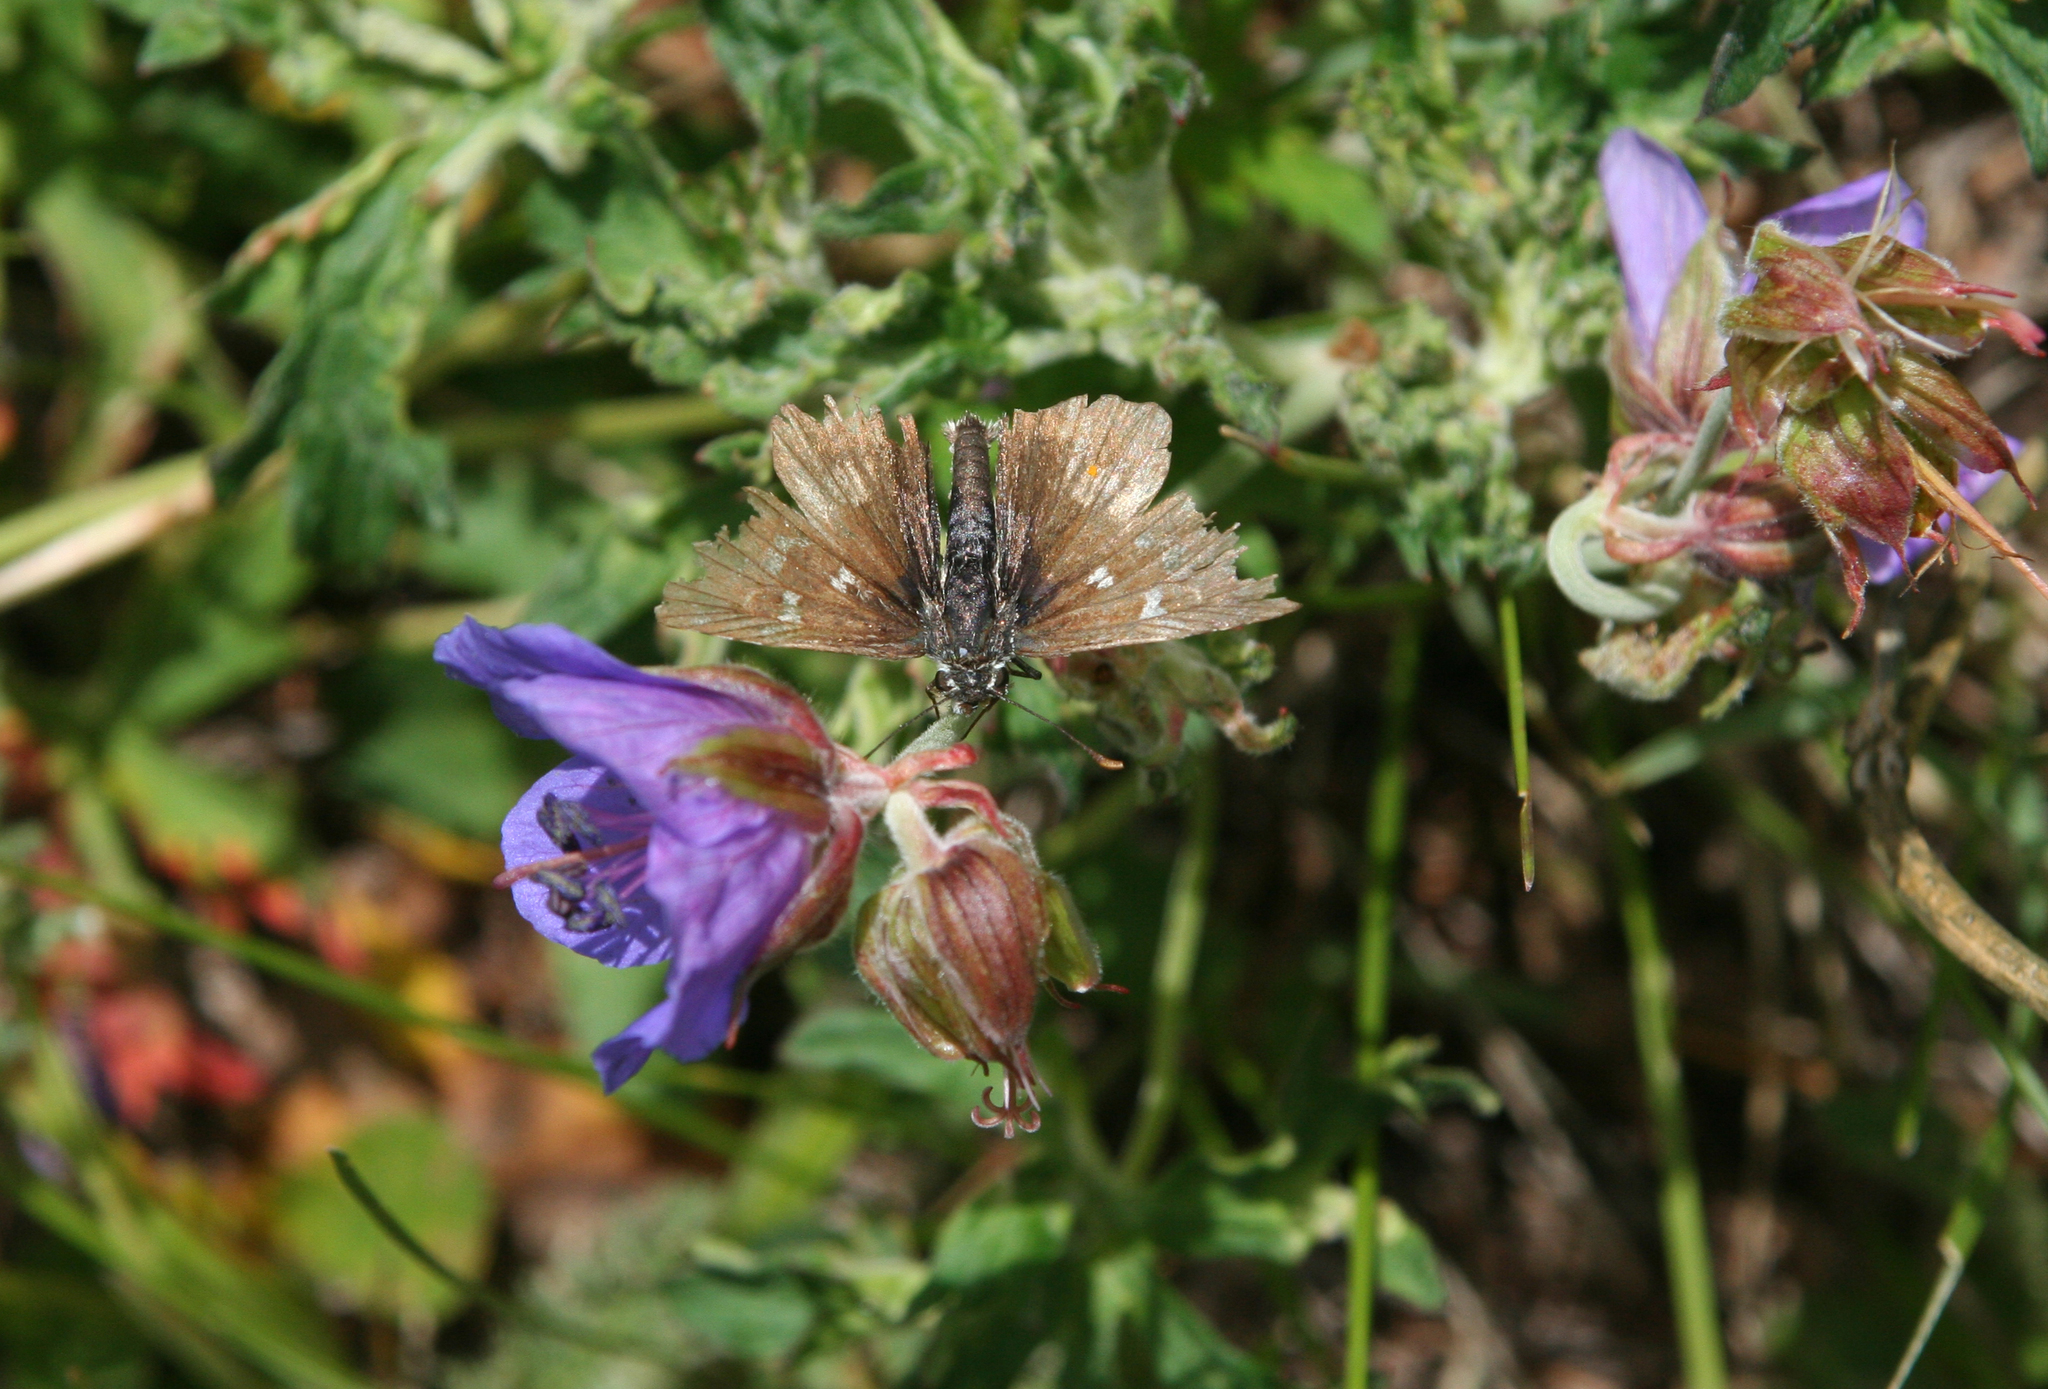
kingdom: Plantae
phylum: Tracheophyta
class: Magnoliopsida
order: Geraniales
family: Geraniaceae
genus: Geranium
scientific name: Geranium pratense
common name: Meadow crane's-bill
